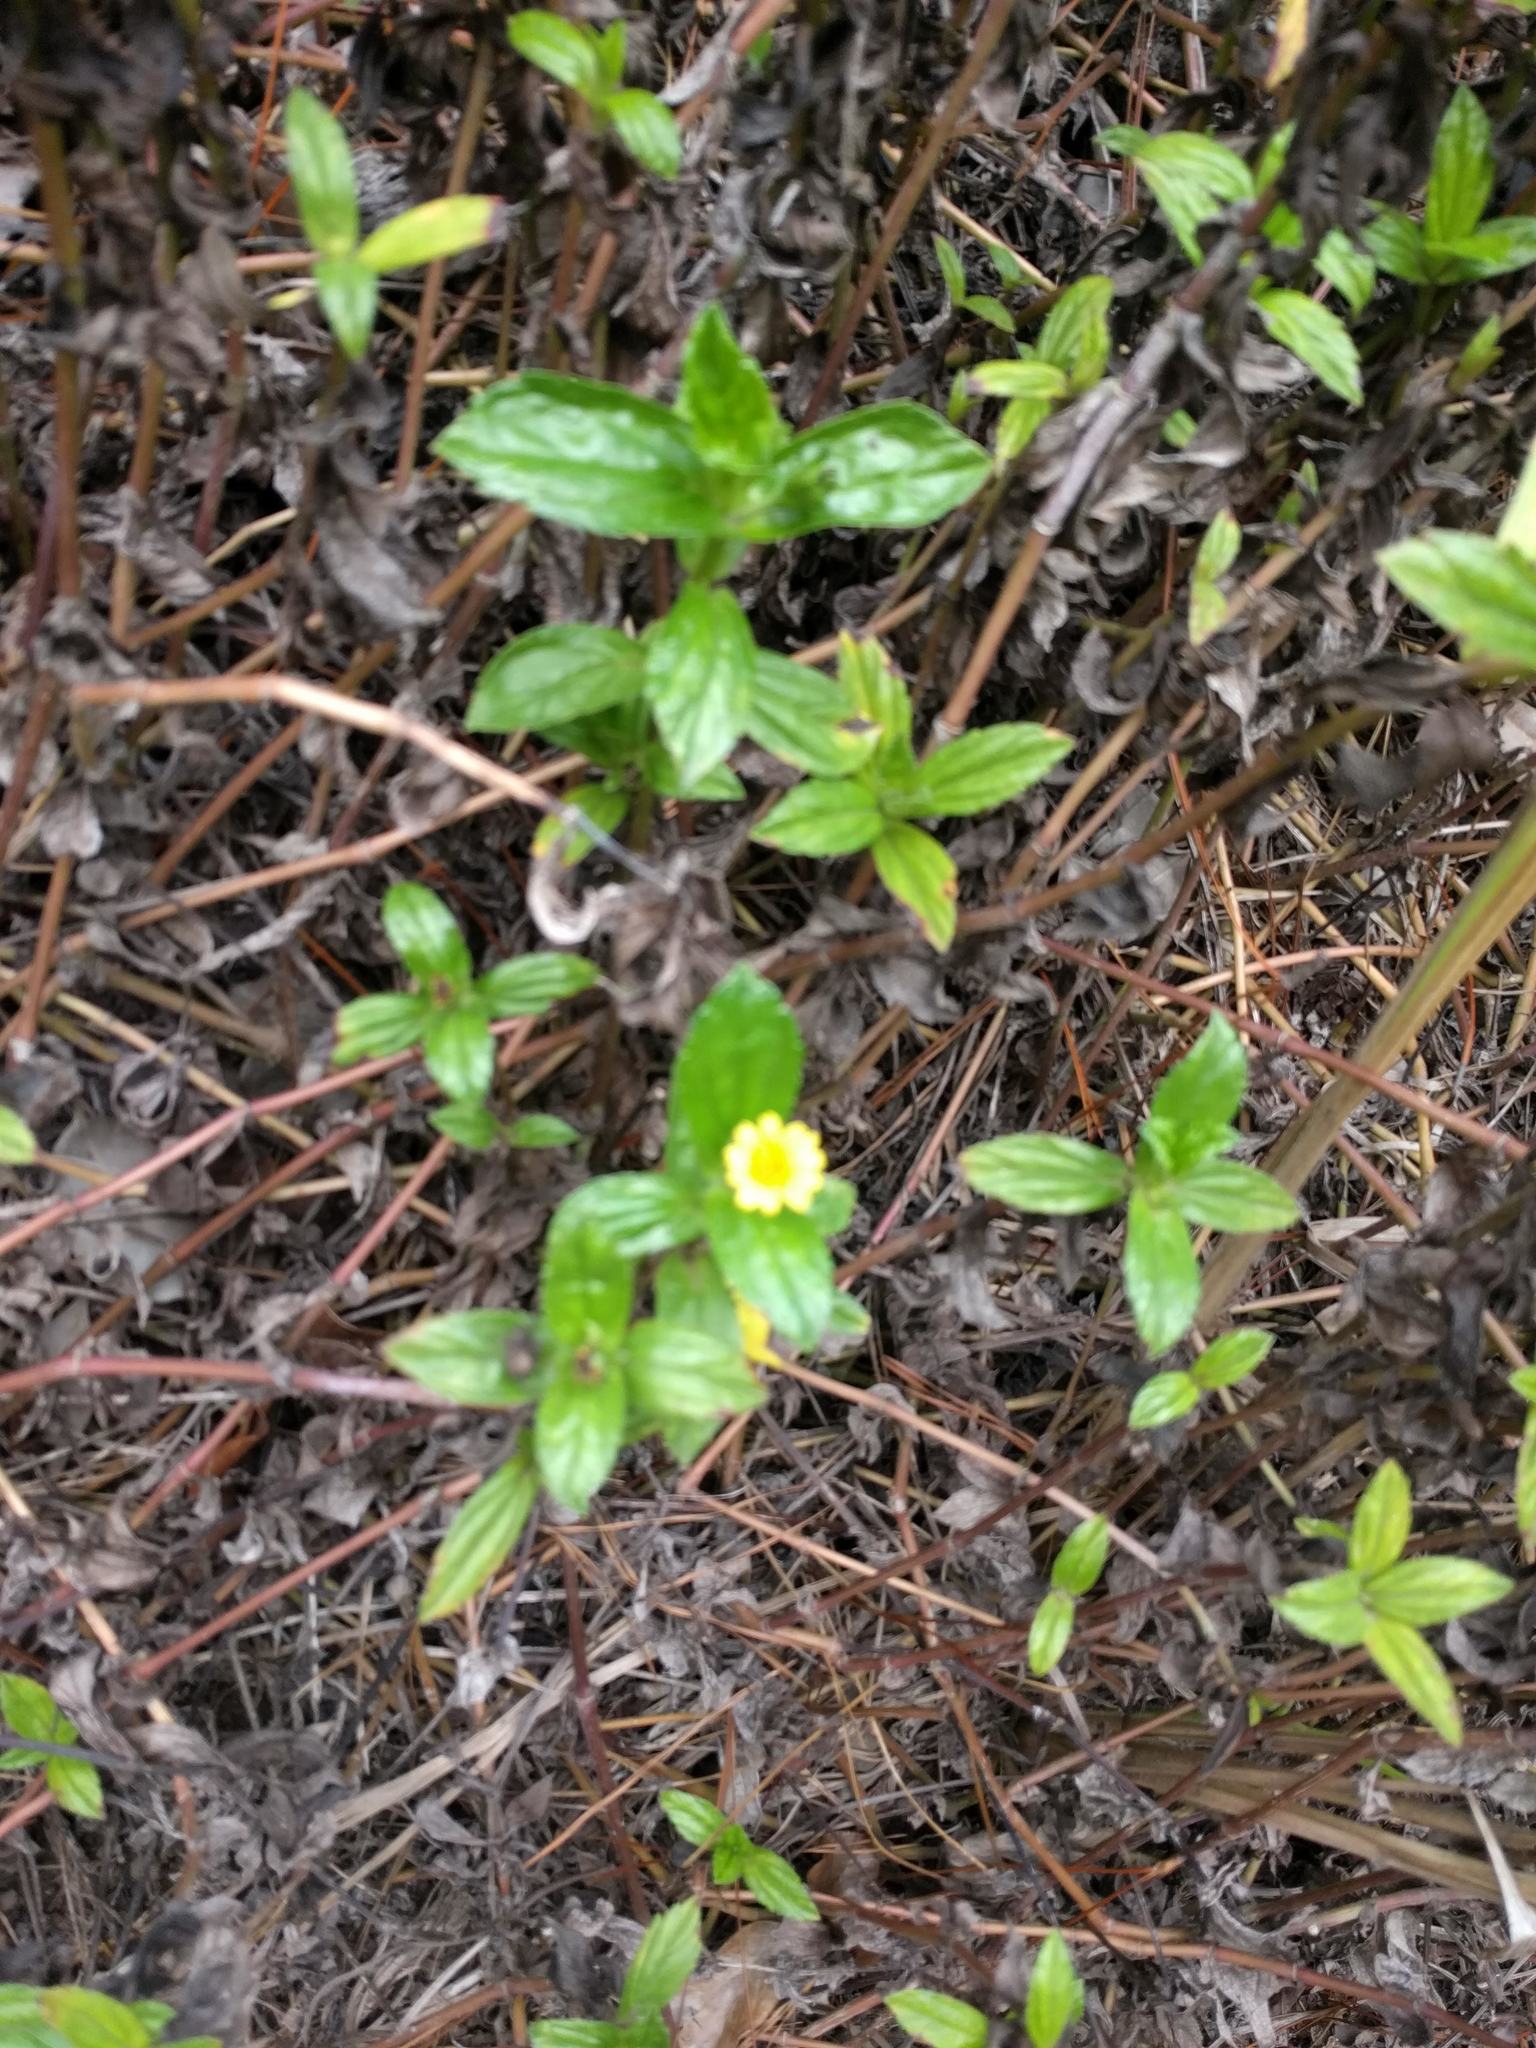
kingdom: Plantae
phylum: Tracheophyta
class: Magnoliopsida
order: Asterales
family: Asteraceae
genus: Sphagneticola
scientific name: Sphagneticola trilobata
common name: Bay biscayne creeping-oxeye
